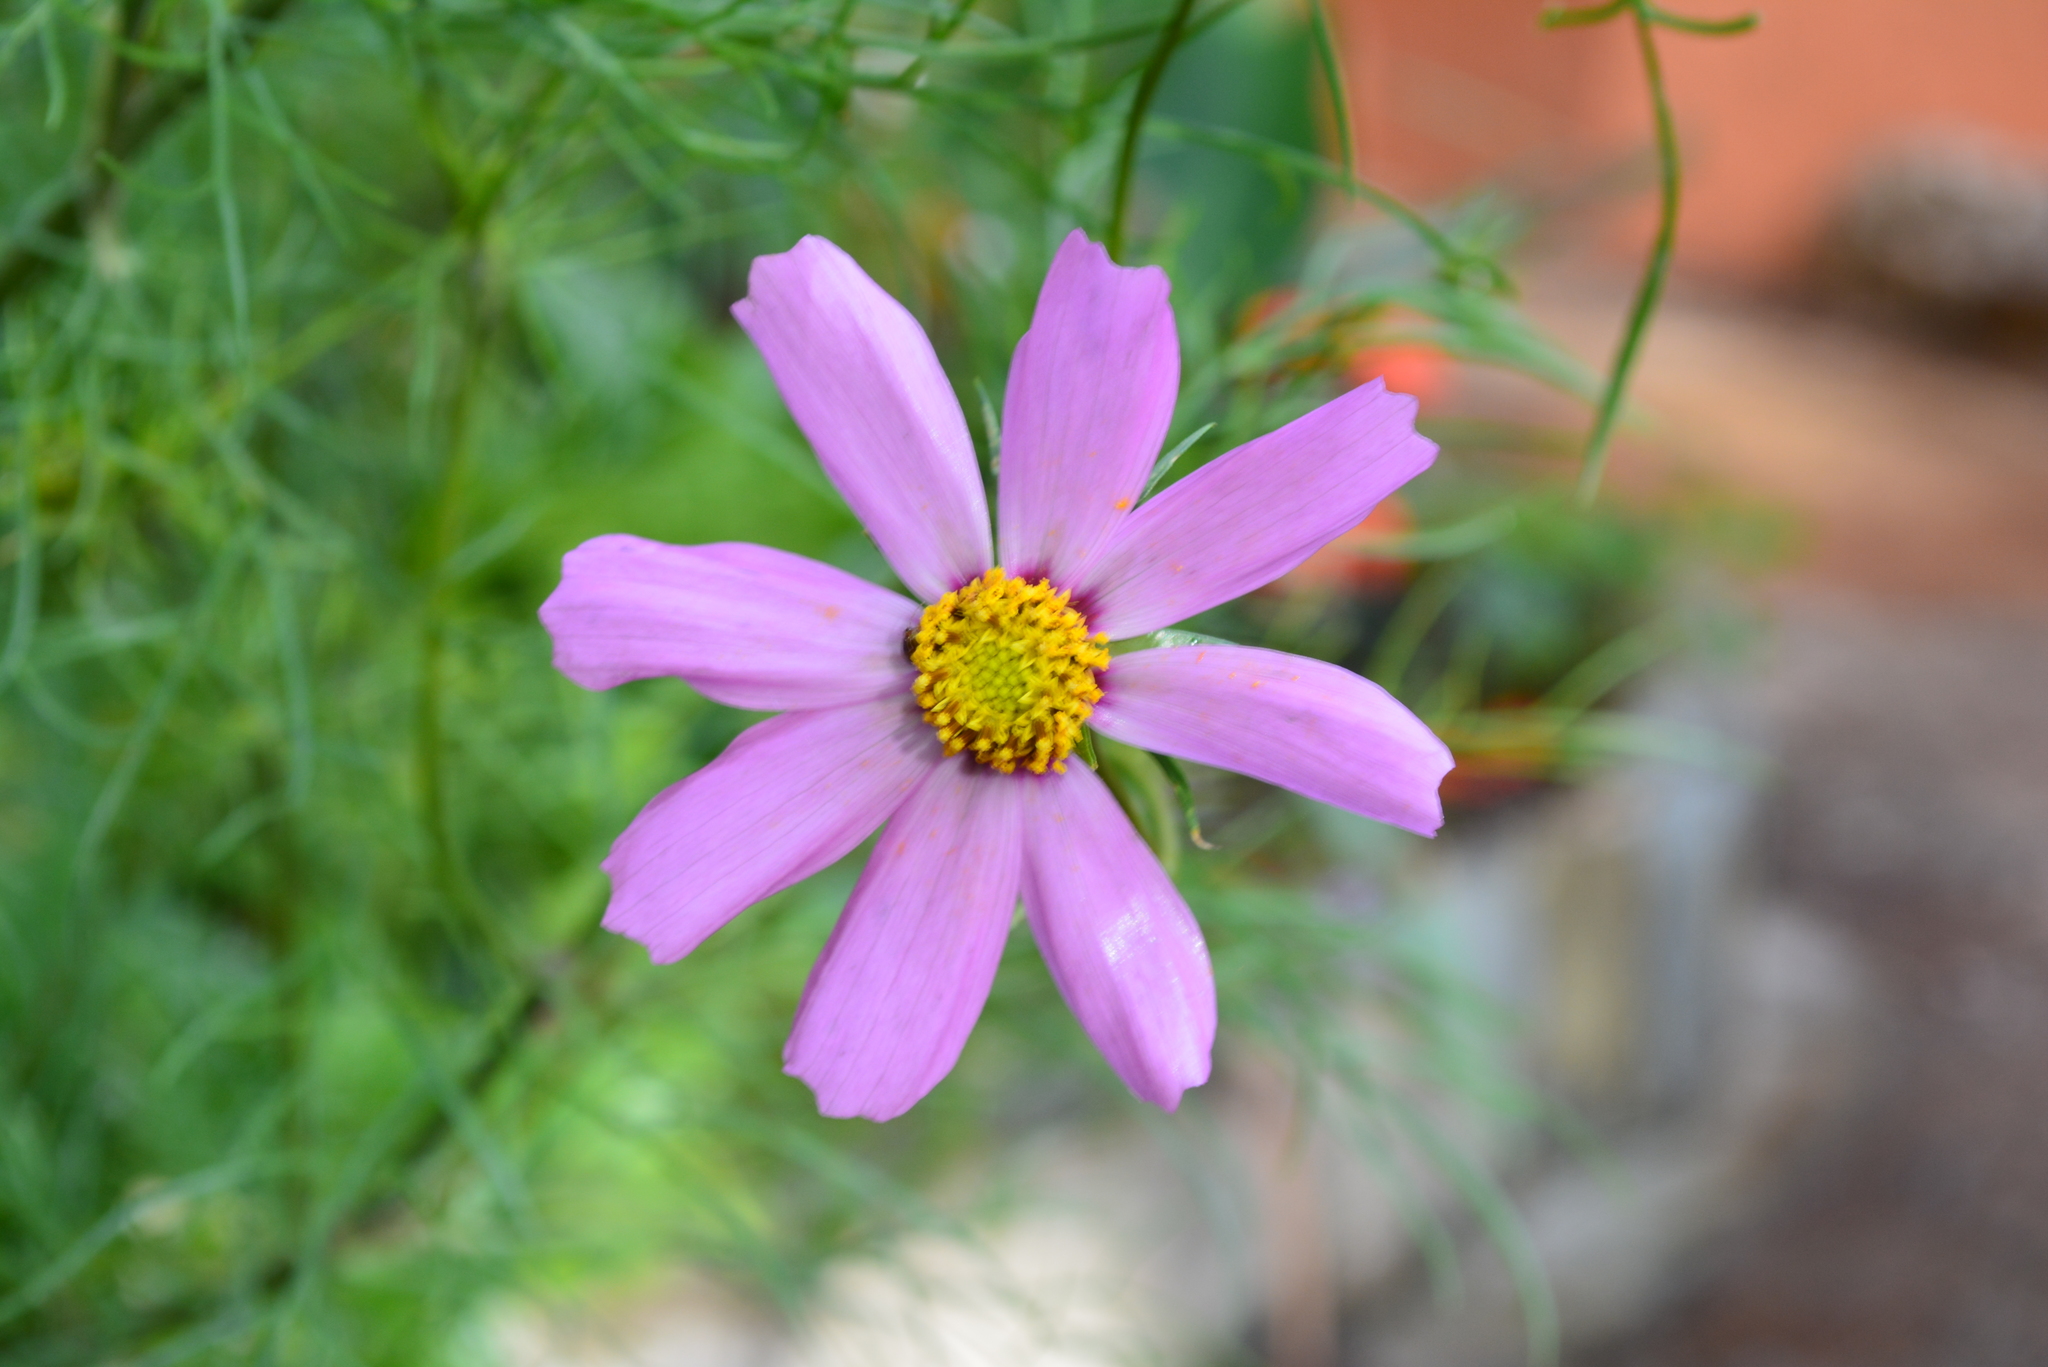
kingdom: Plantae
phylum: Tracheophyta
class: Magnoliopsida
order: Asterales
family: Asteraceae
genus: Cosmos
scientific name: Cosmos bipinnatus
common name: Garden cosmos
